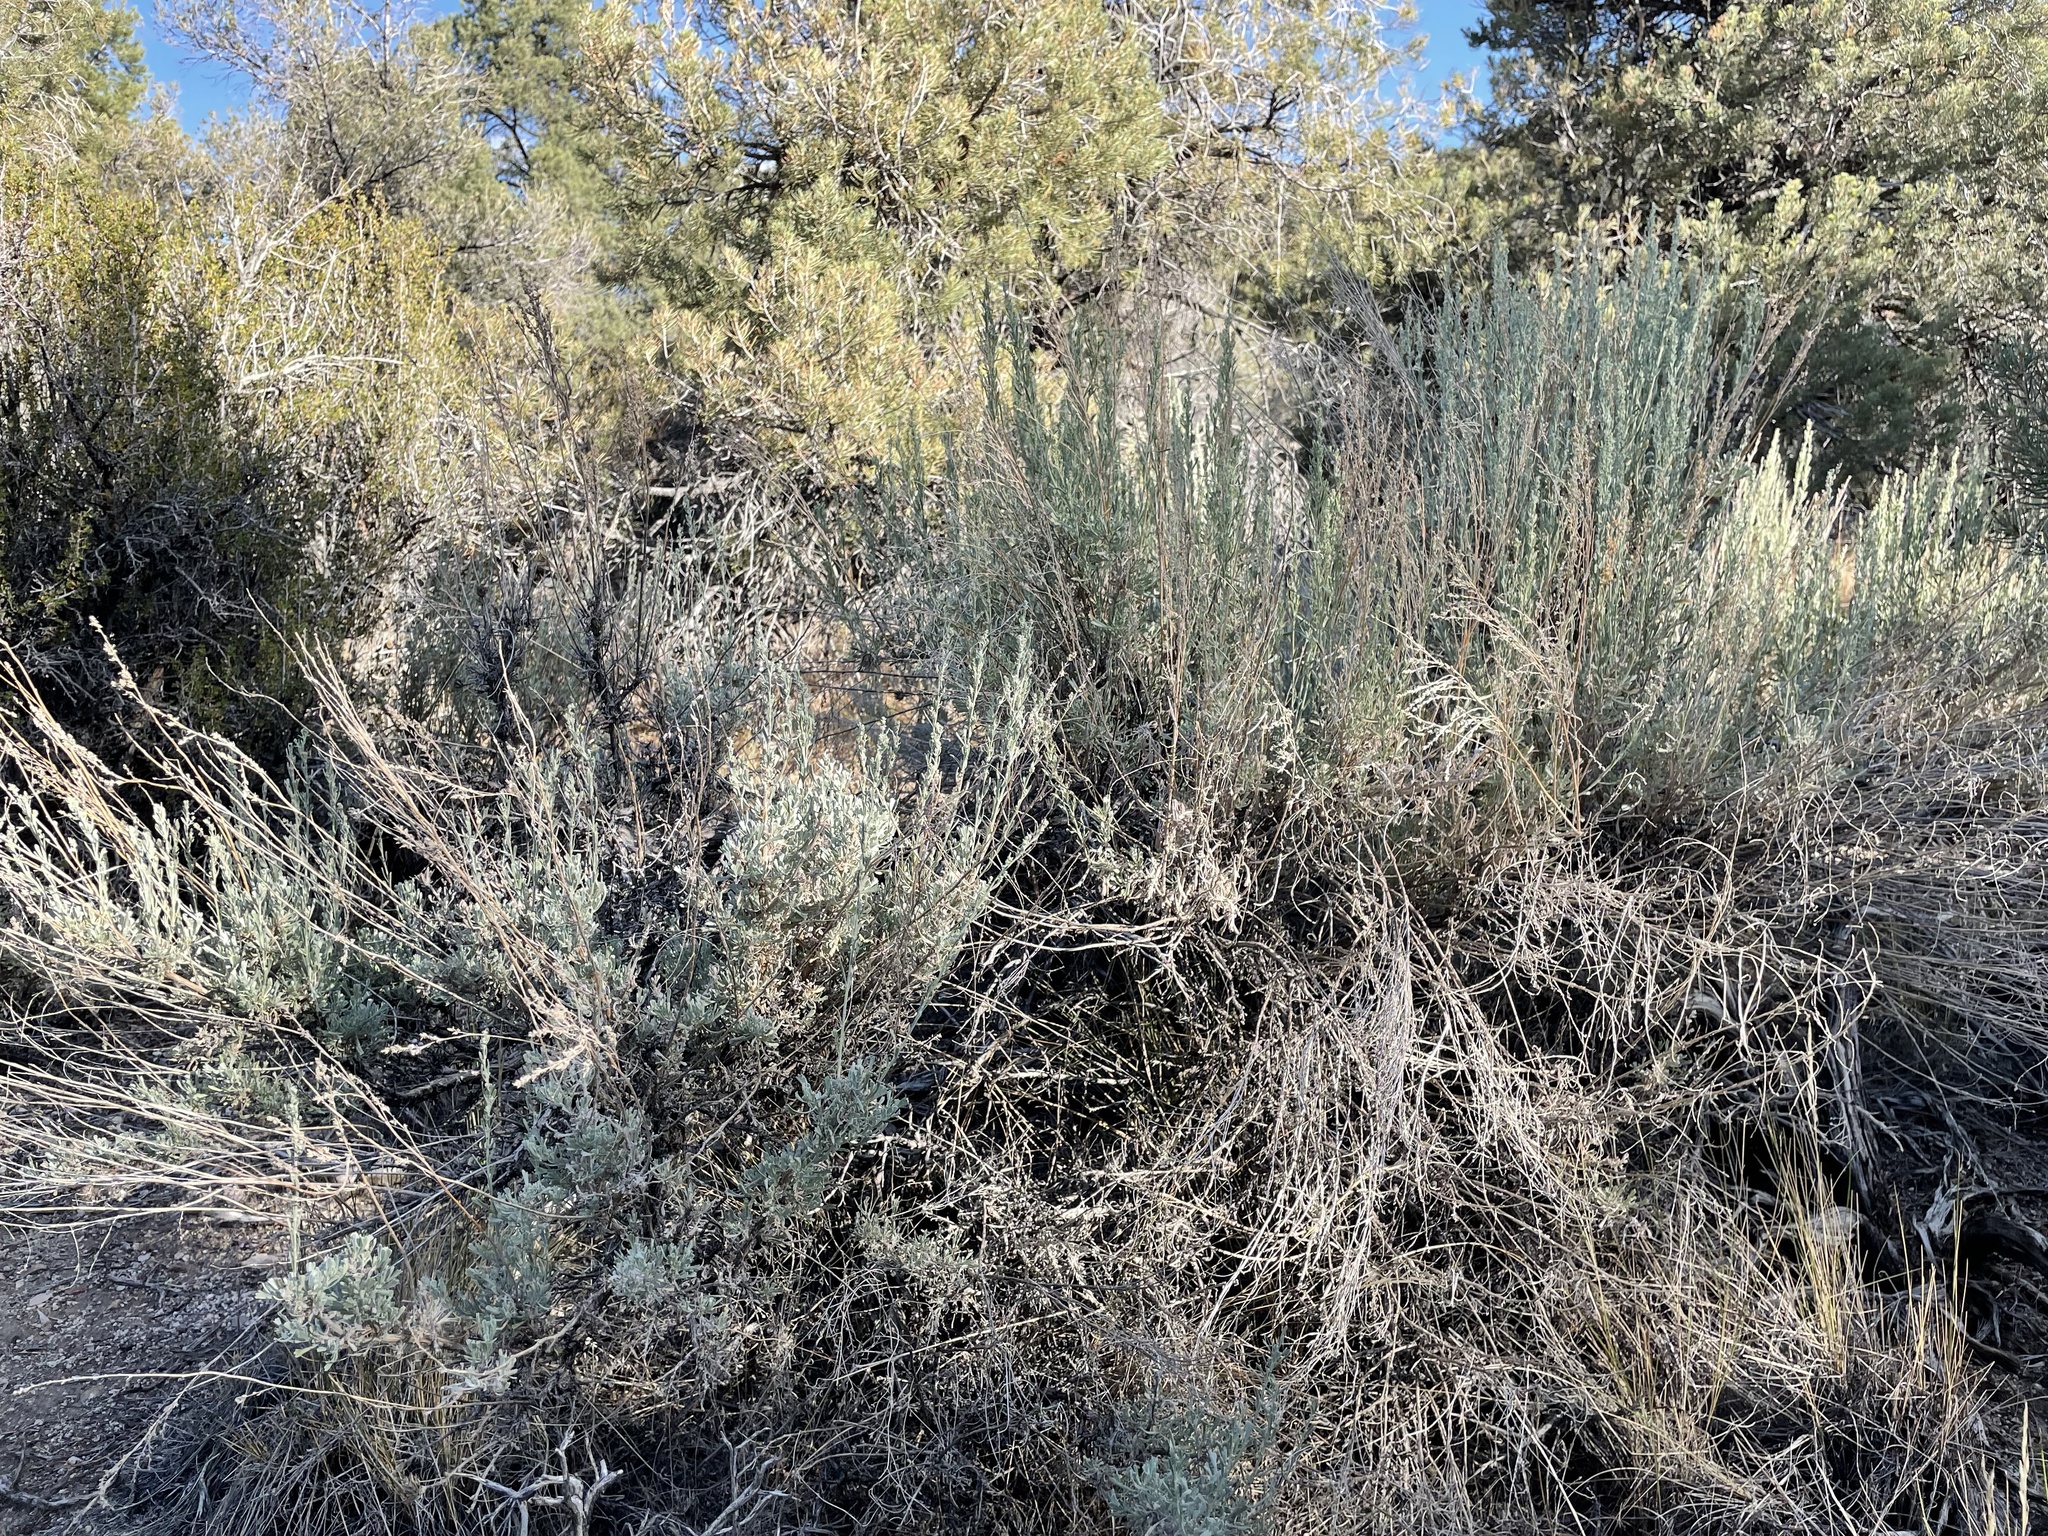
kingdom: Plantae
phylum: Tracheophyta
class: Magnoliopsida
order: Asterales
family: Asteraceae
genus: Artemisia
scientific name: Artemisia tridentata
